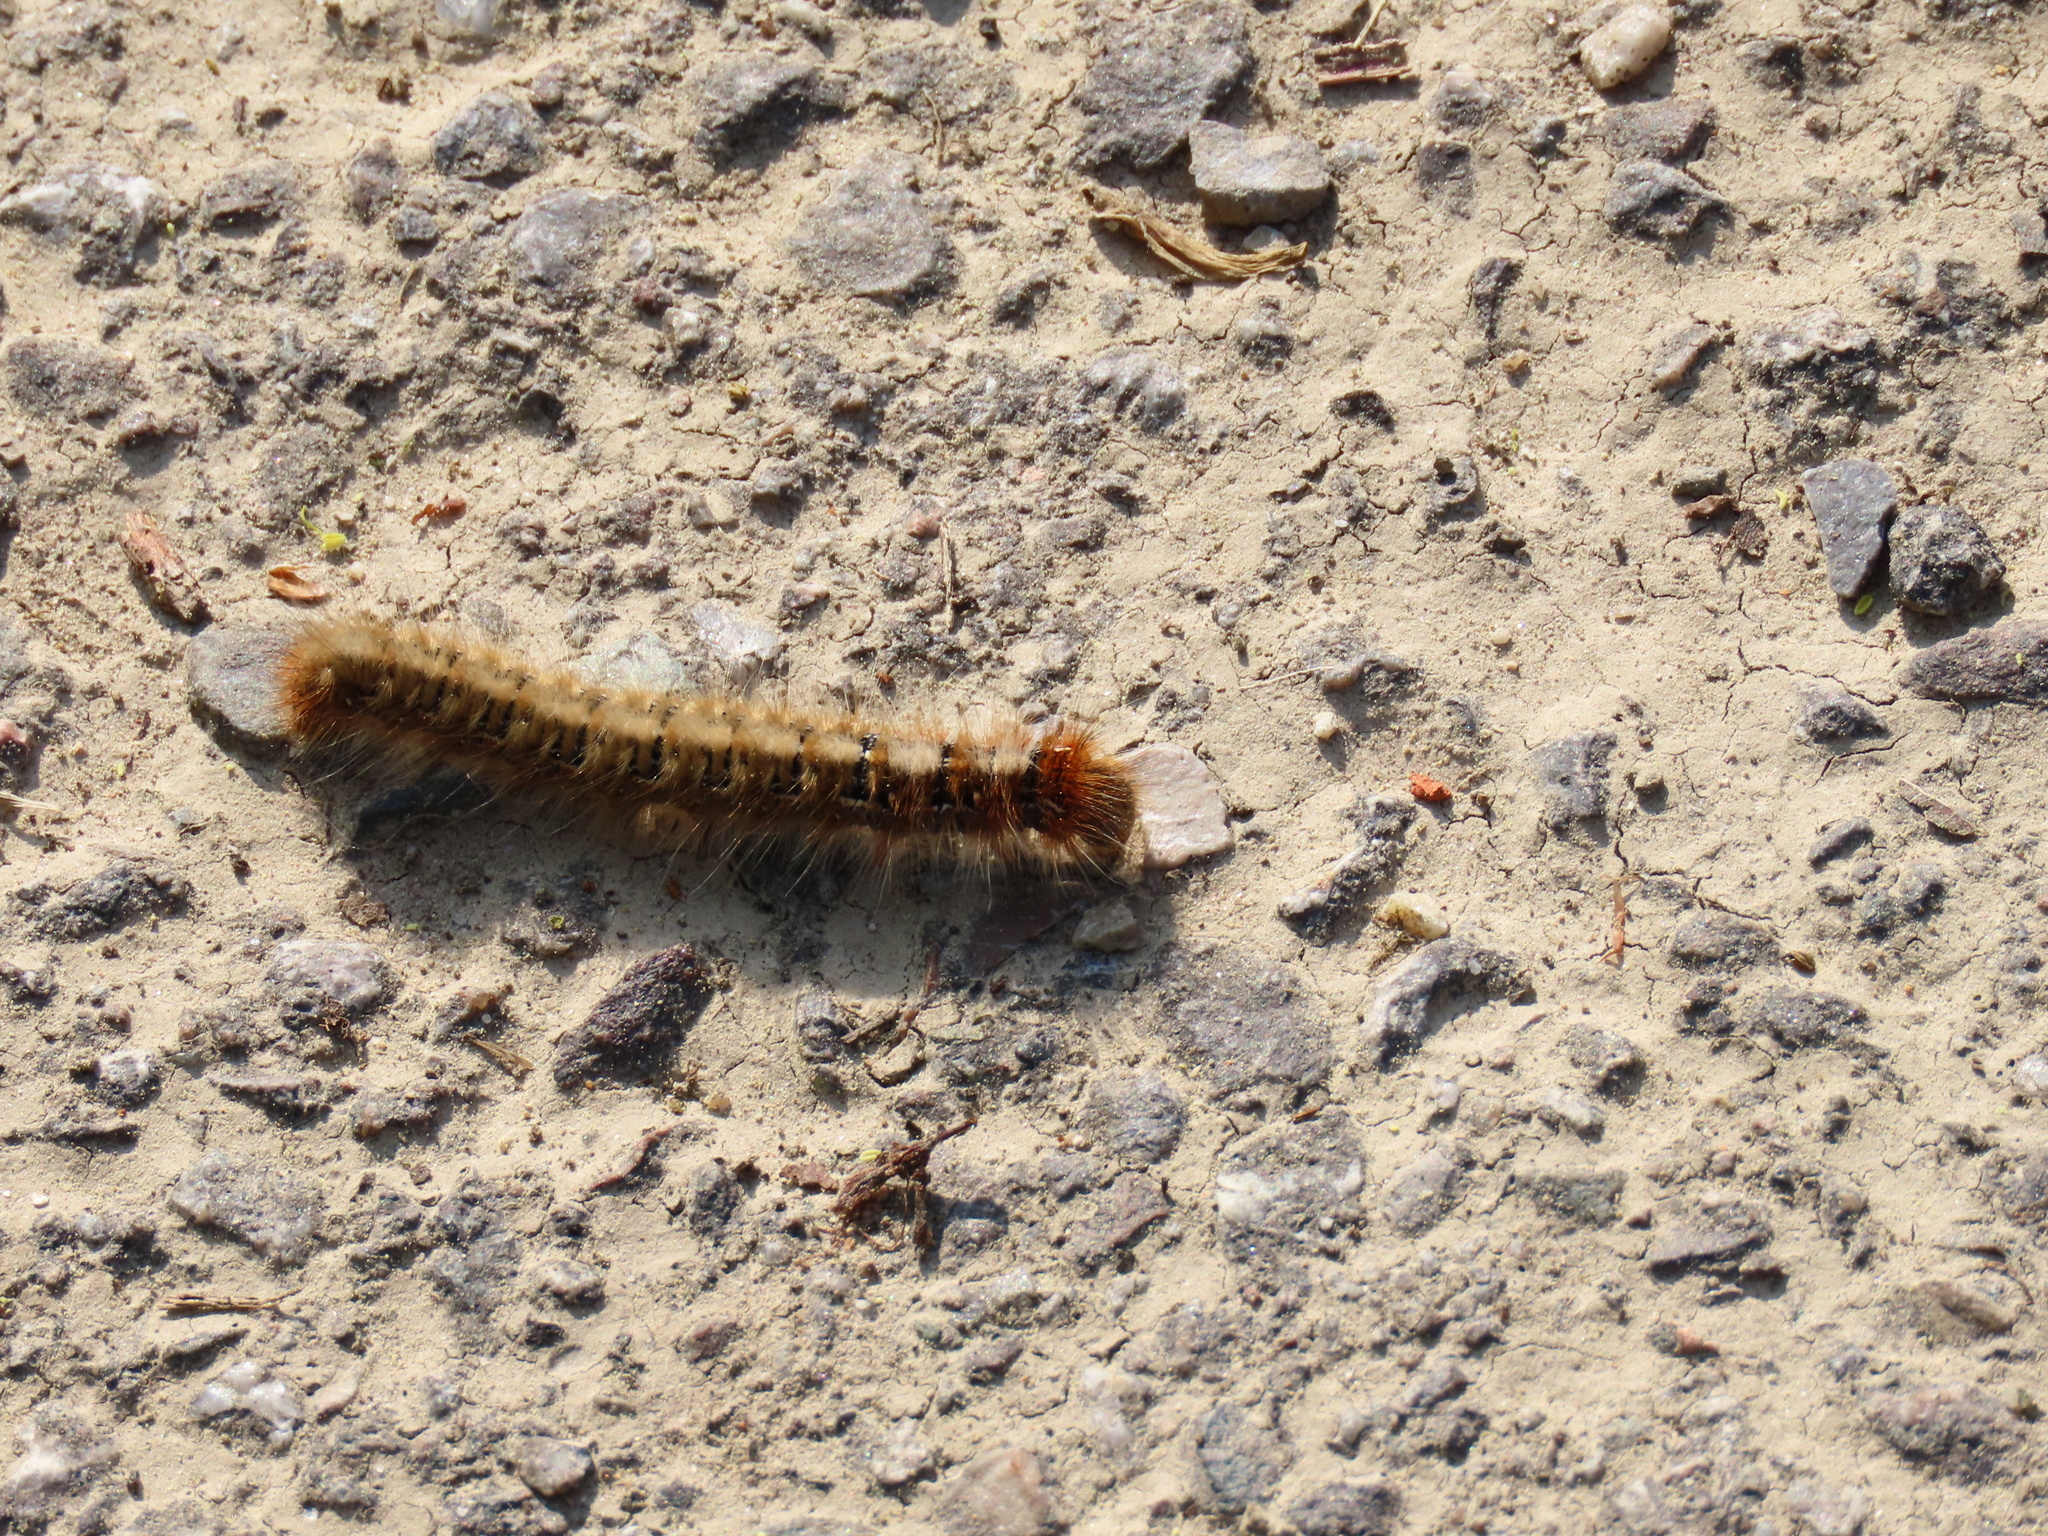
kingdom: Animalia
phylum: Arthropoda
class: Insecta
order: Lepidoptera
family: Lasiocampidae
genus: Lasiocampa
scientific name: Lasiocampa quercus
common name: Oak eggar
